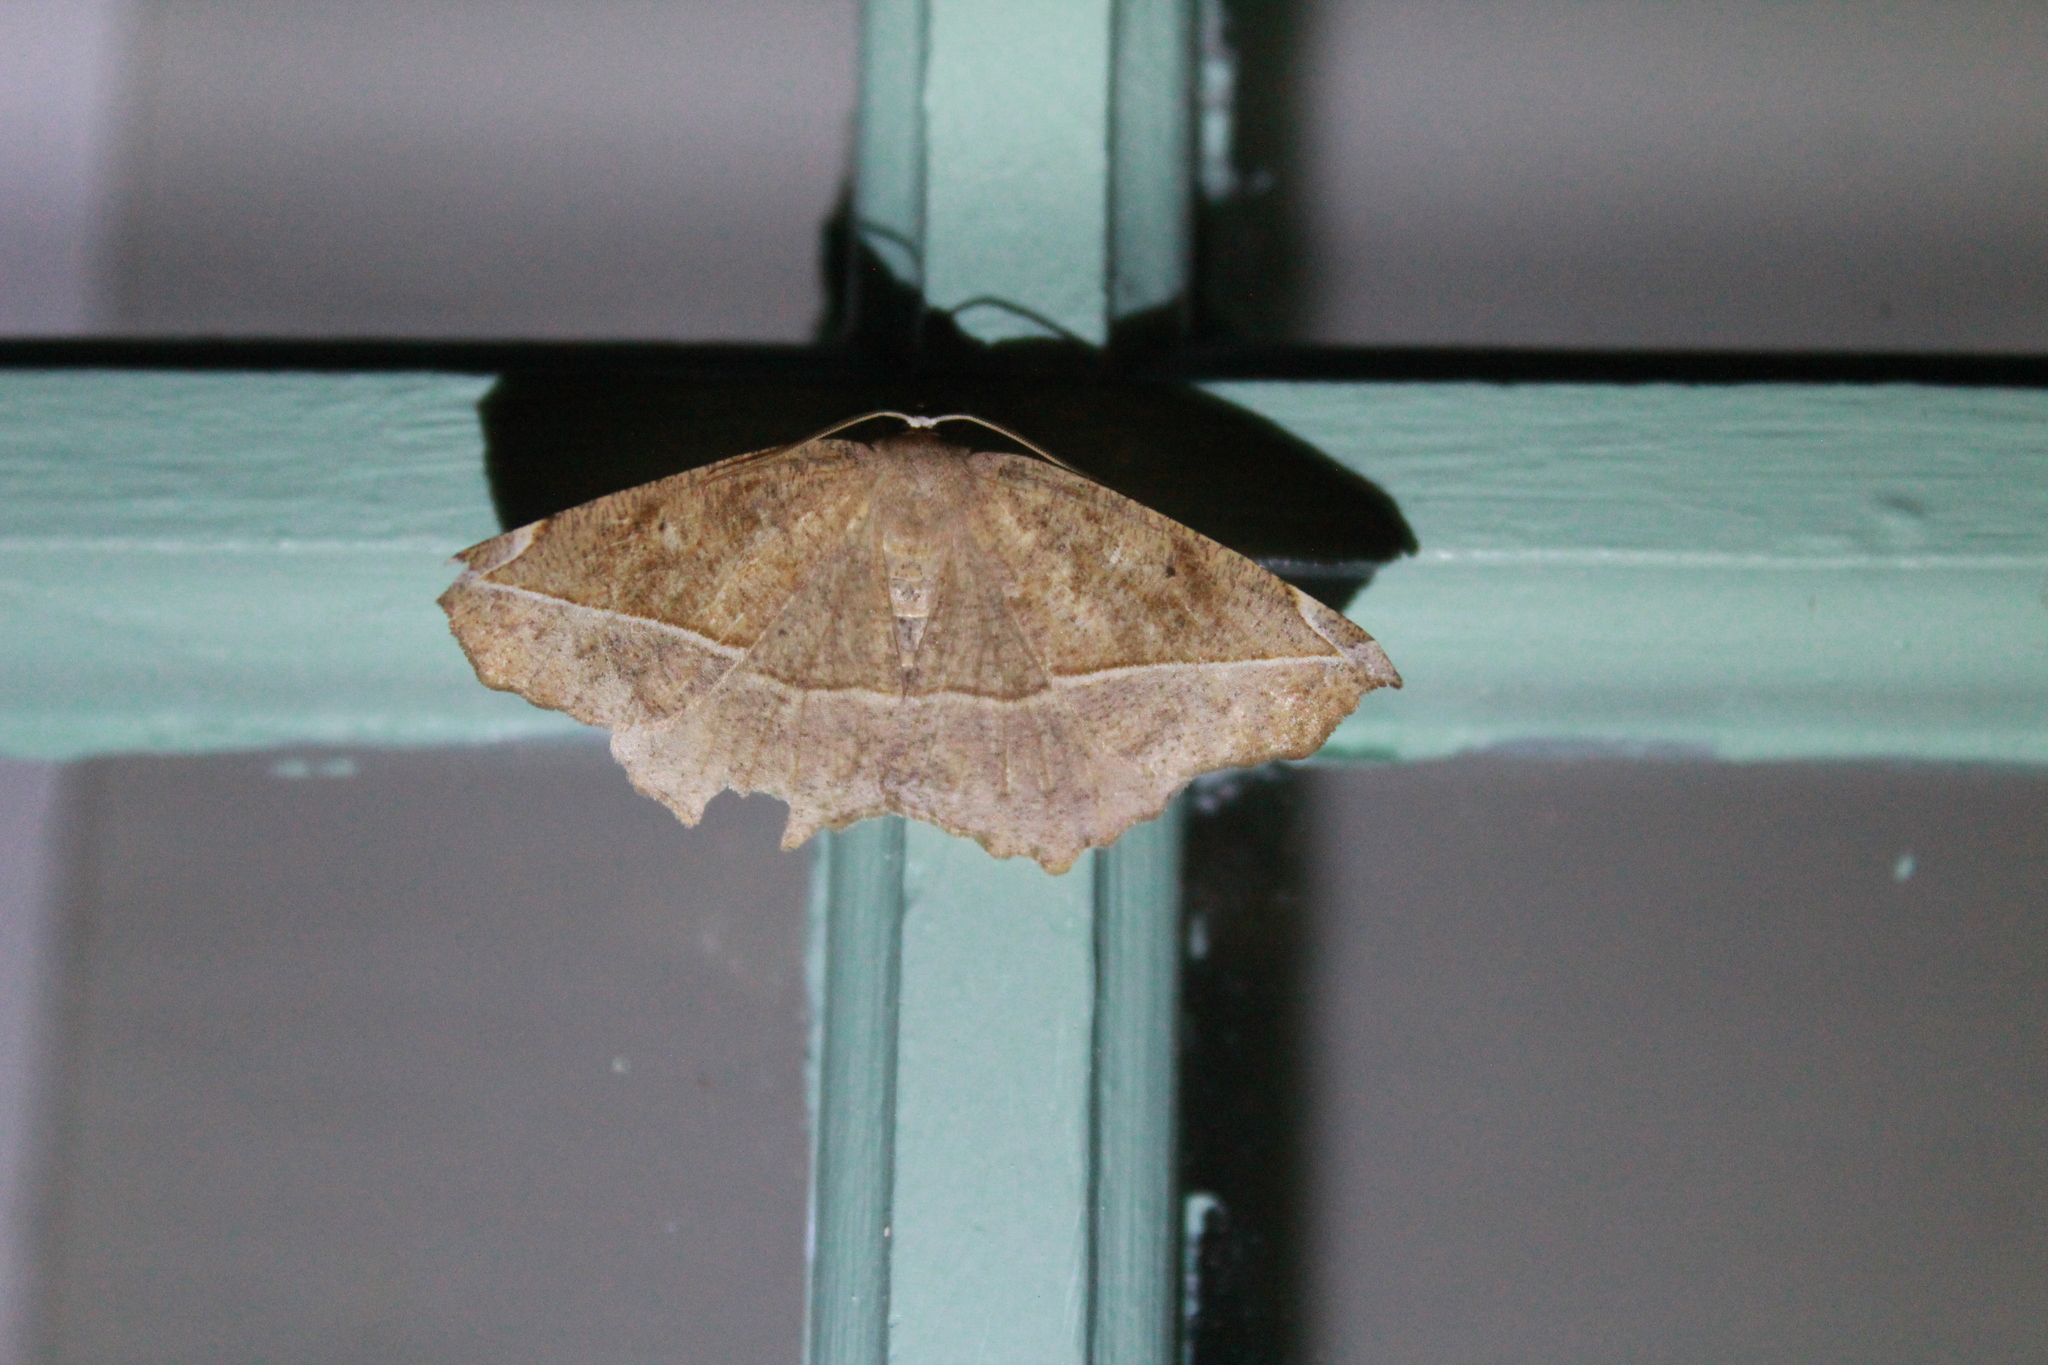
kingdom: Animalia
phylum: Arthropoda
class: Insecta
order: Lepidoptera
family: Geometridae
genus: Eutrapela
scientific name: Eutrapela clemataria
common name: Curved-toothed geometer
